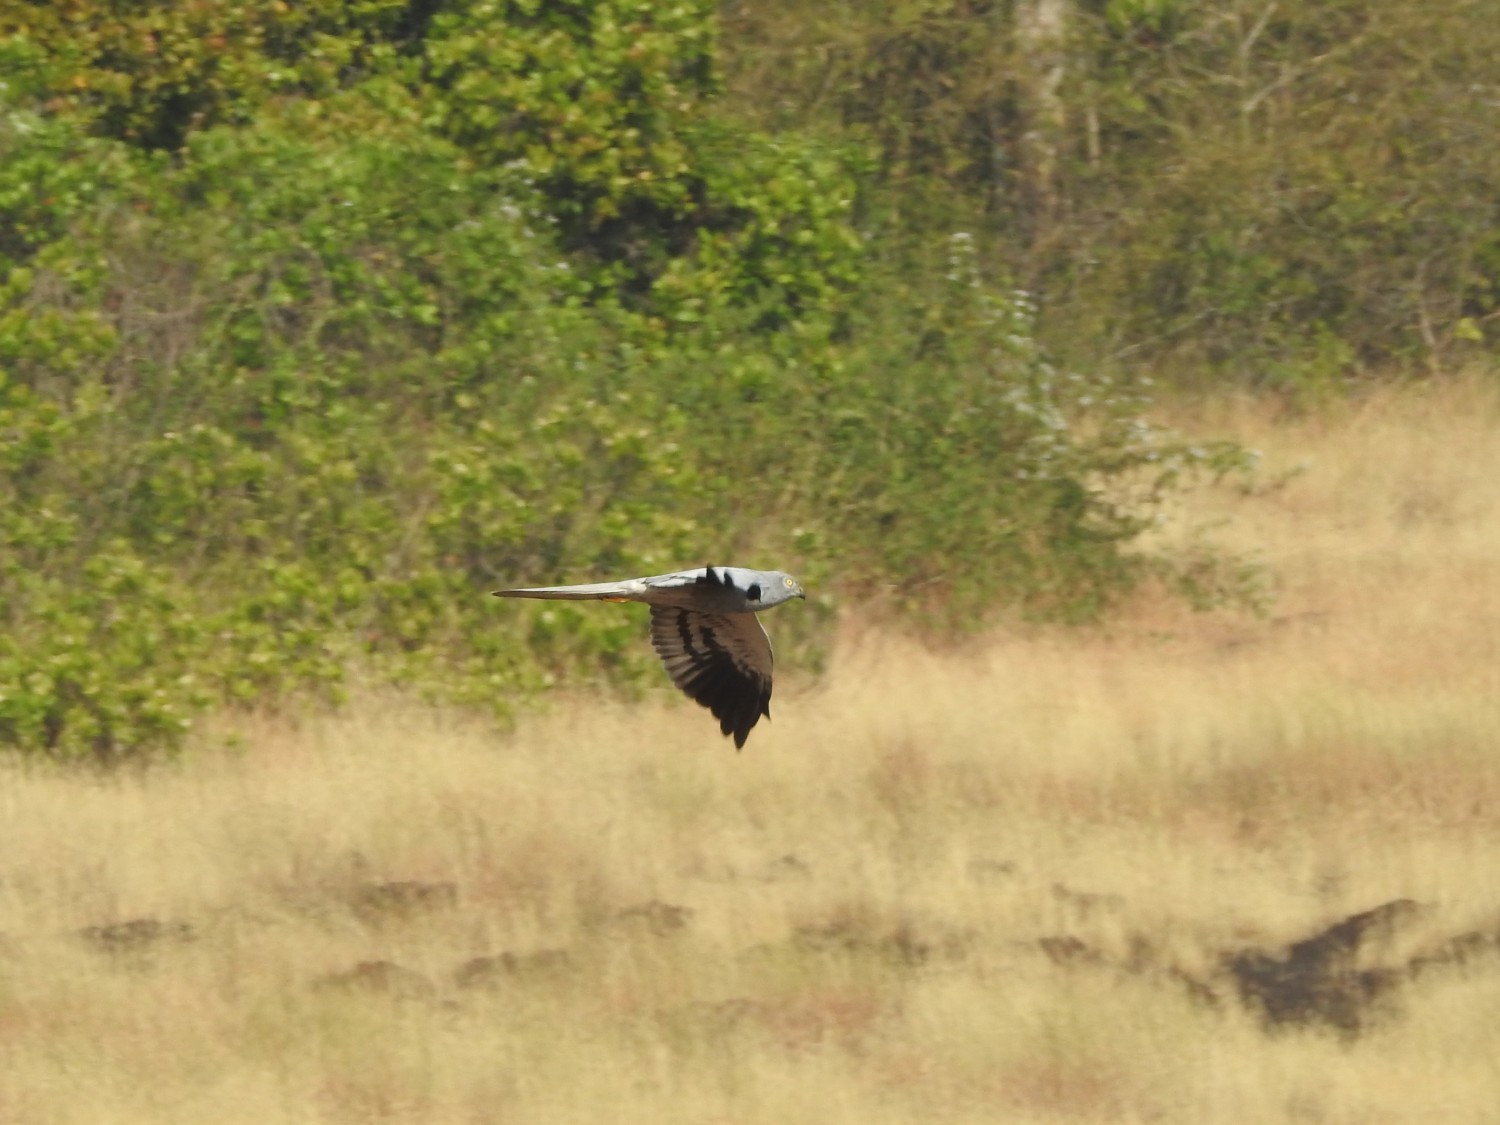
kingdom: Animalia
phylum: Chordata
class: Aves
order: Accipitriformes
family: Accipitridae
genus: Circus
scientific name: Circus pygargus
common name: Montagu's harrier
